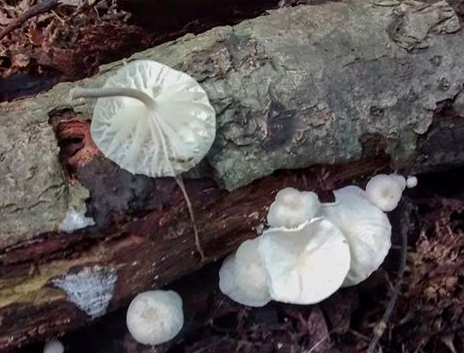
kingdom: Fungi
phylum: Basidiomycota
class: Agaricomycetes
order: Agaricales
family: Omphalotaceae
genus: Marasmiellus
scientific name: Marasmiellus candidus
